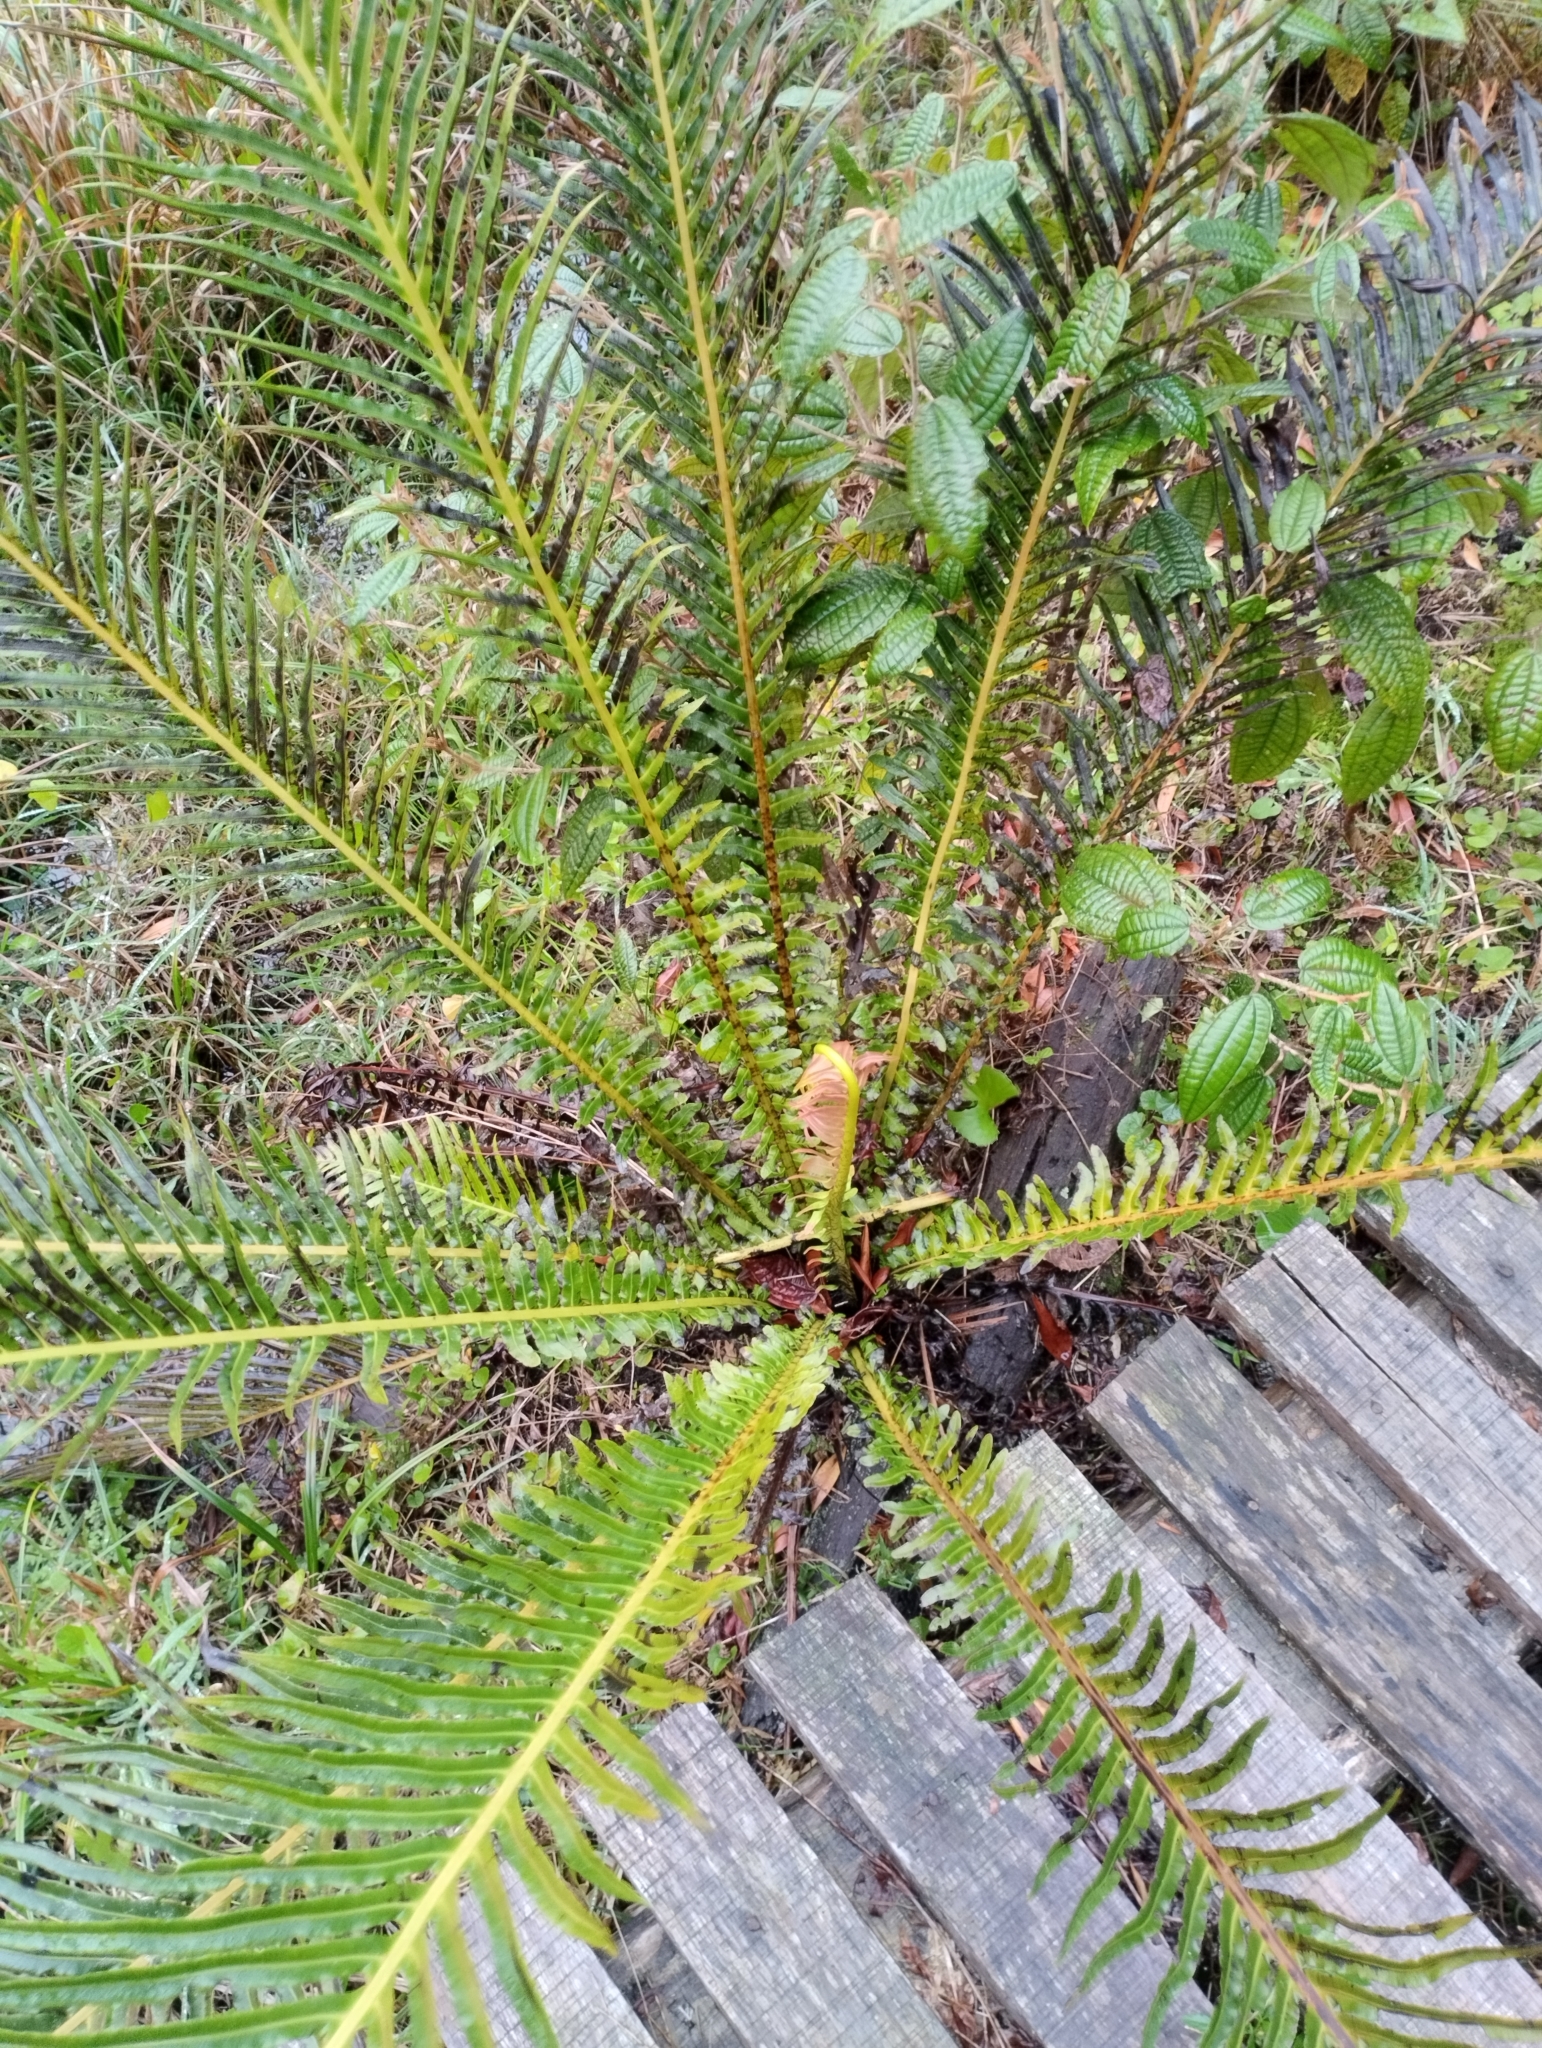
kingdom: Plantae
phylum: Tracheophyta
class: Polypodiopsida
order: Polypodiales
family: Blechnaceae
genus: Neoblechnum
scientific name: Neoblechnum brasiliense
